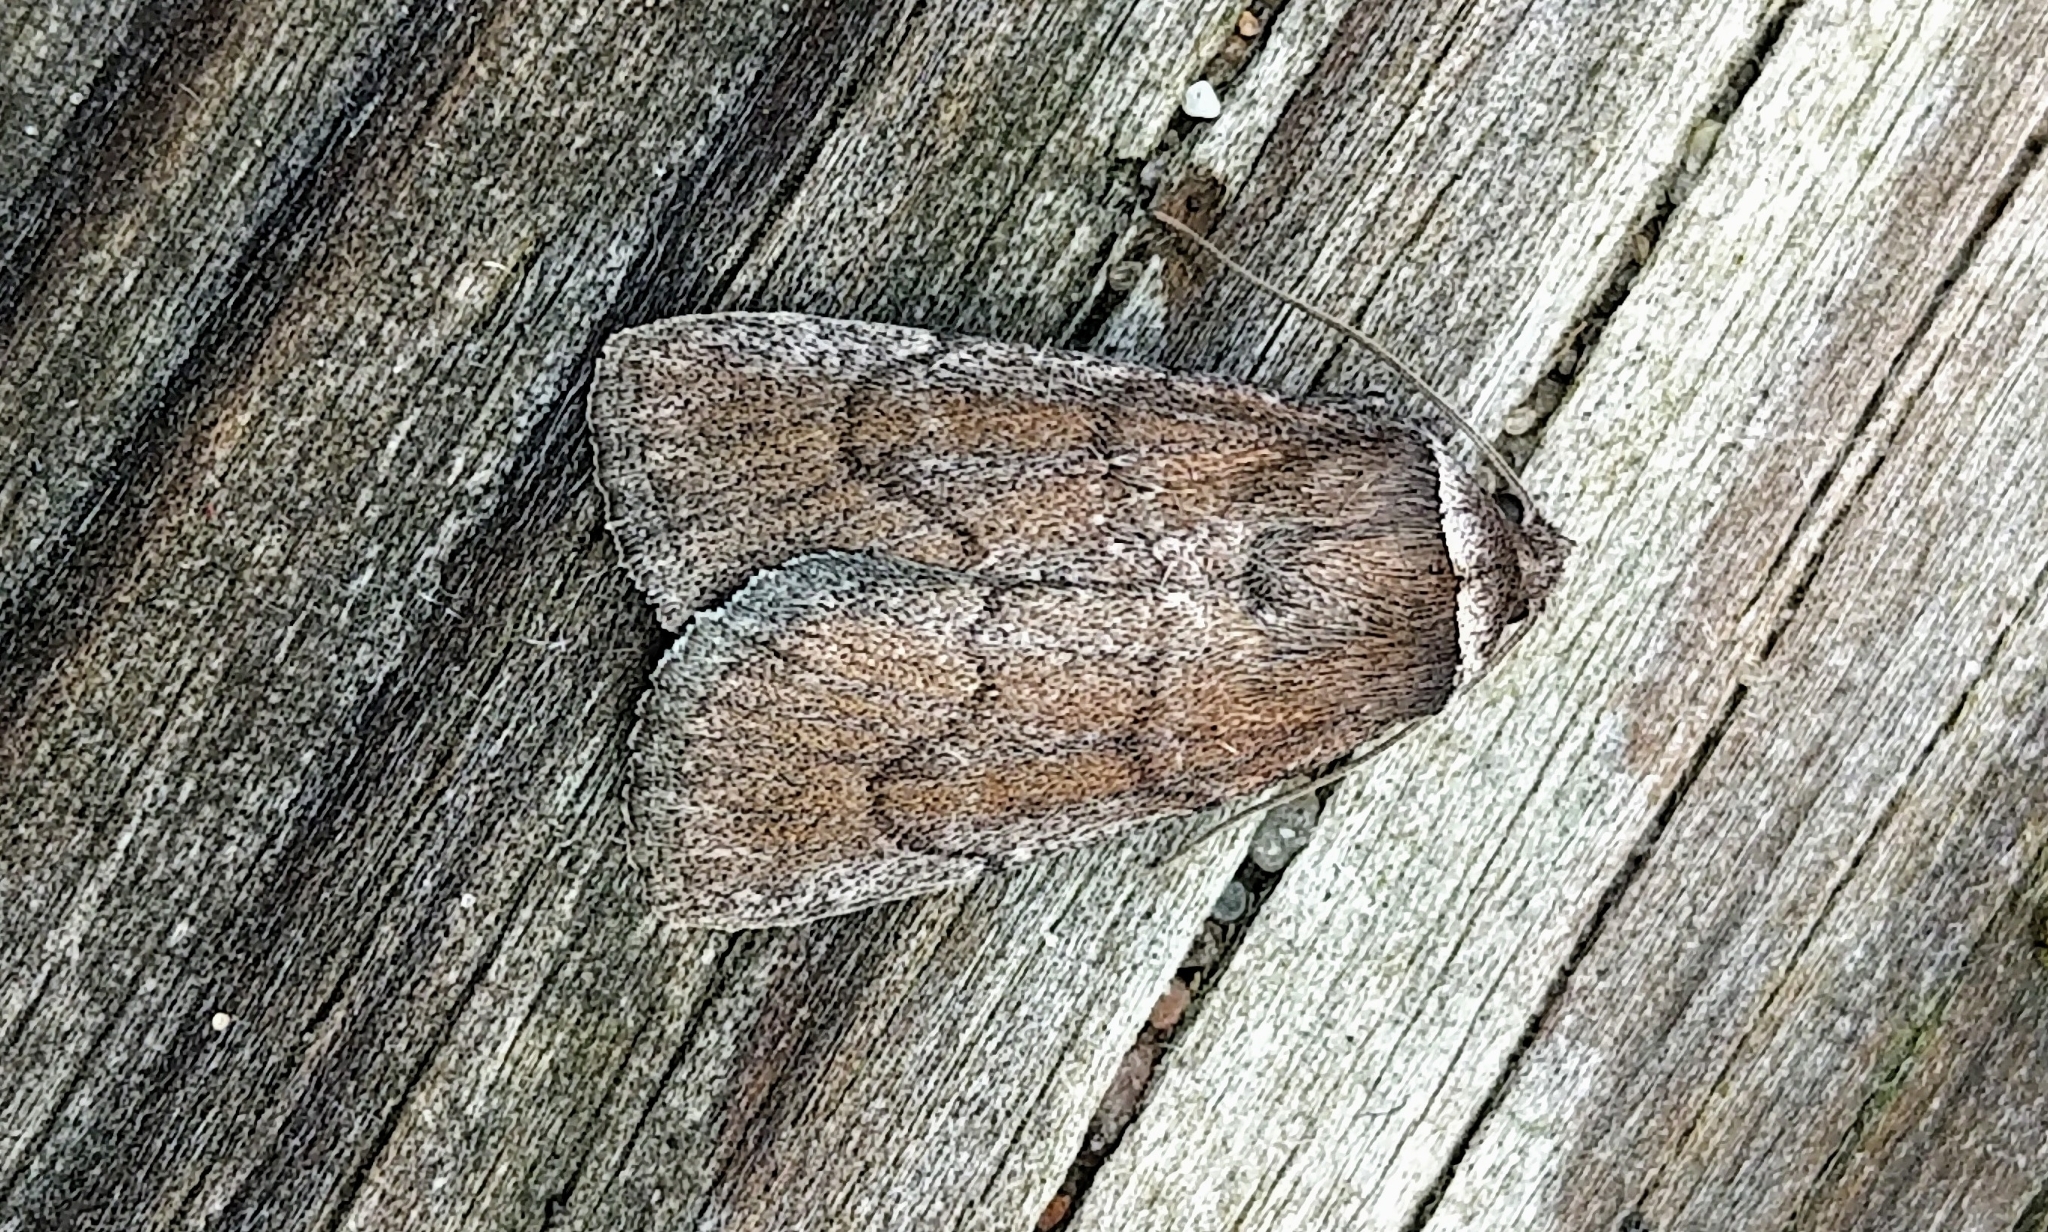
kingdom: Animalia
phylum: Arthropoda
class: Insecta
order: Lepidoptera
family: Noctuidae
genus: Sympistis
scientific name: Sympistis stabilis
